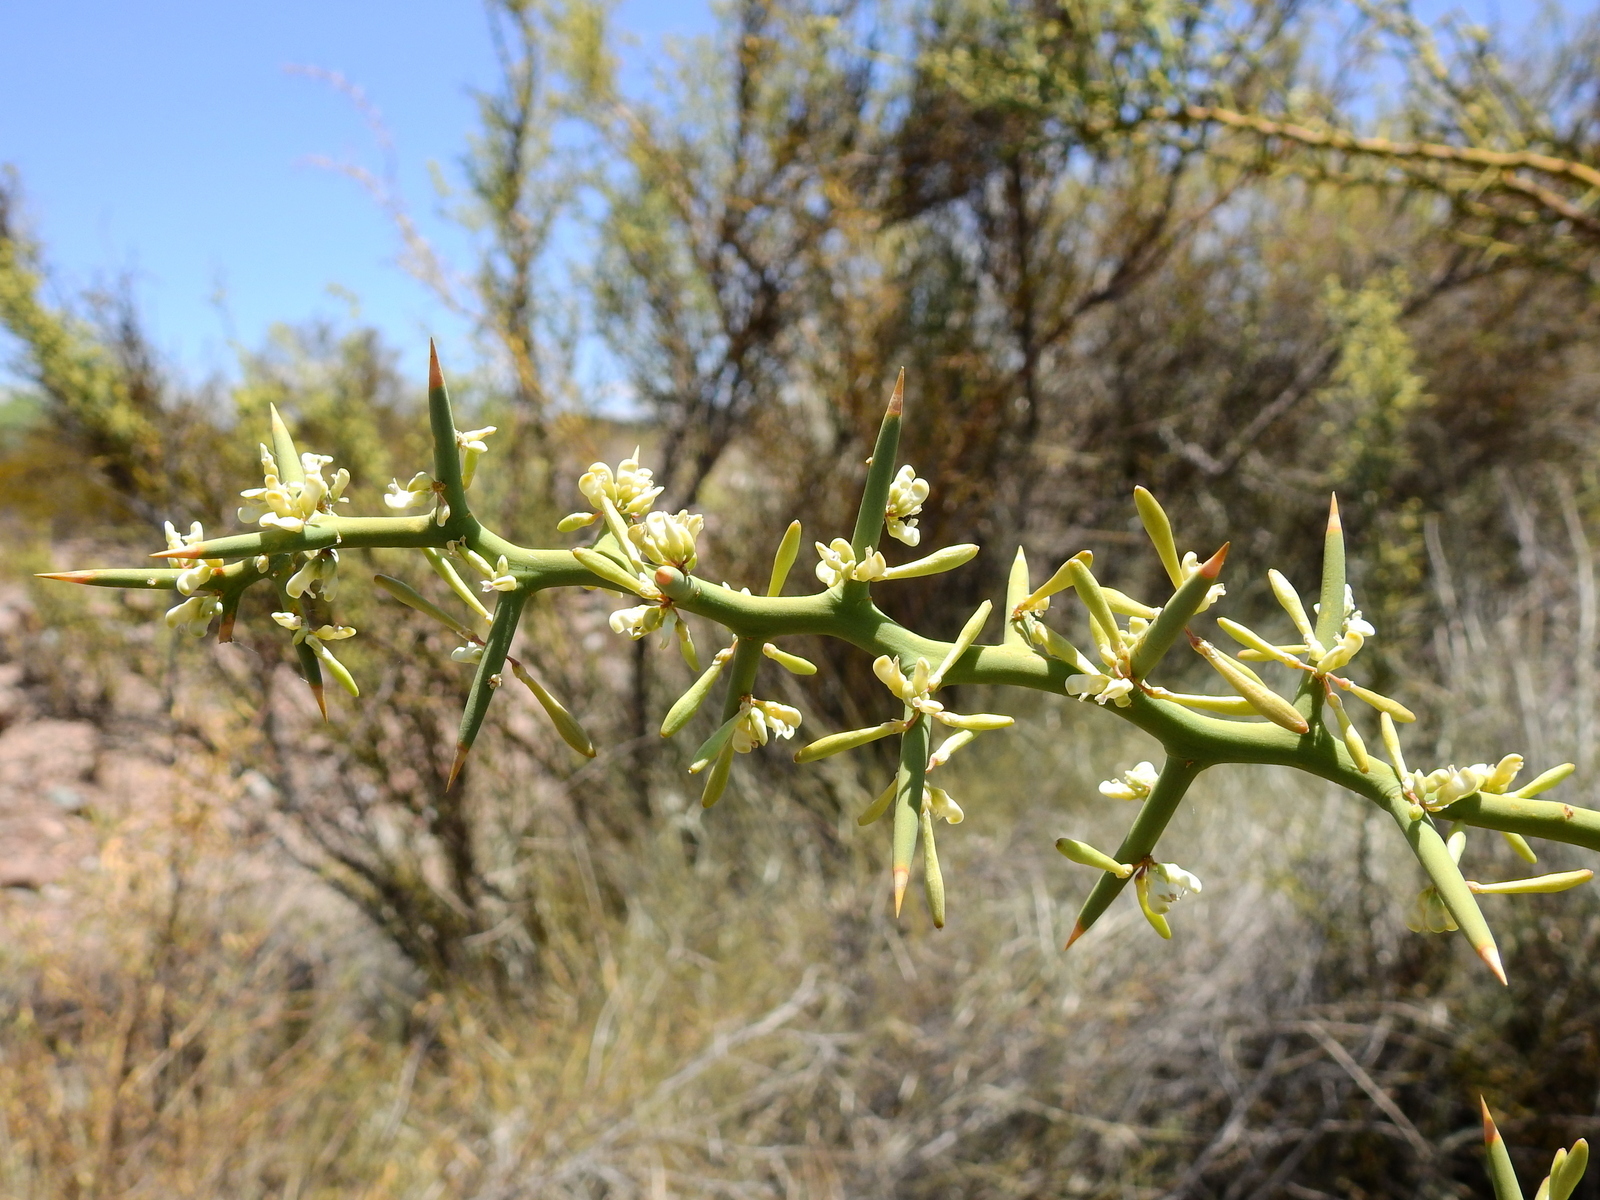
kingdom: Plantae
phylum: Tracheophyta
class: Magnoliopsida
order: Fabales
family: Polygalaceae
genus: Bredemeyera
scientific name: Bredemeyera colletioides
